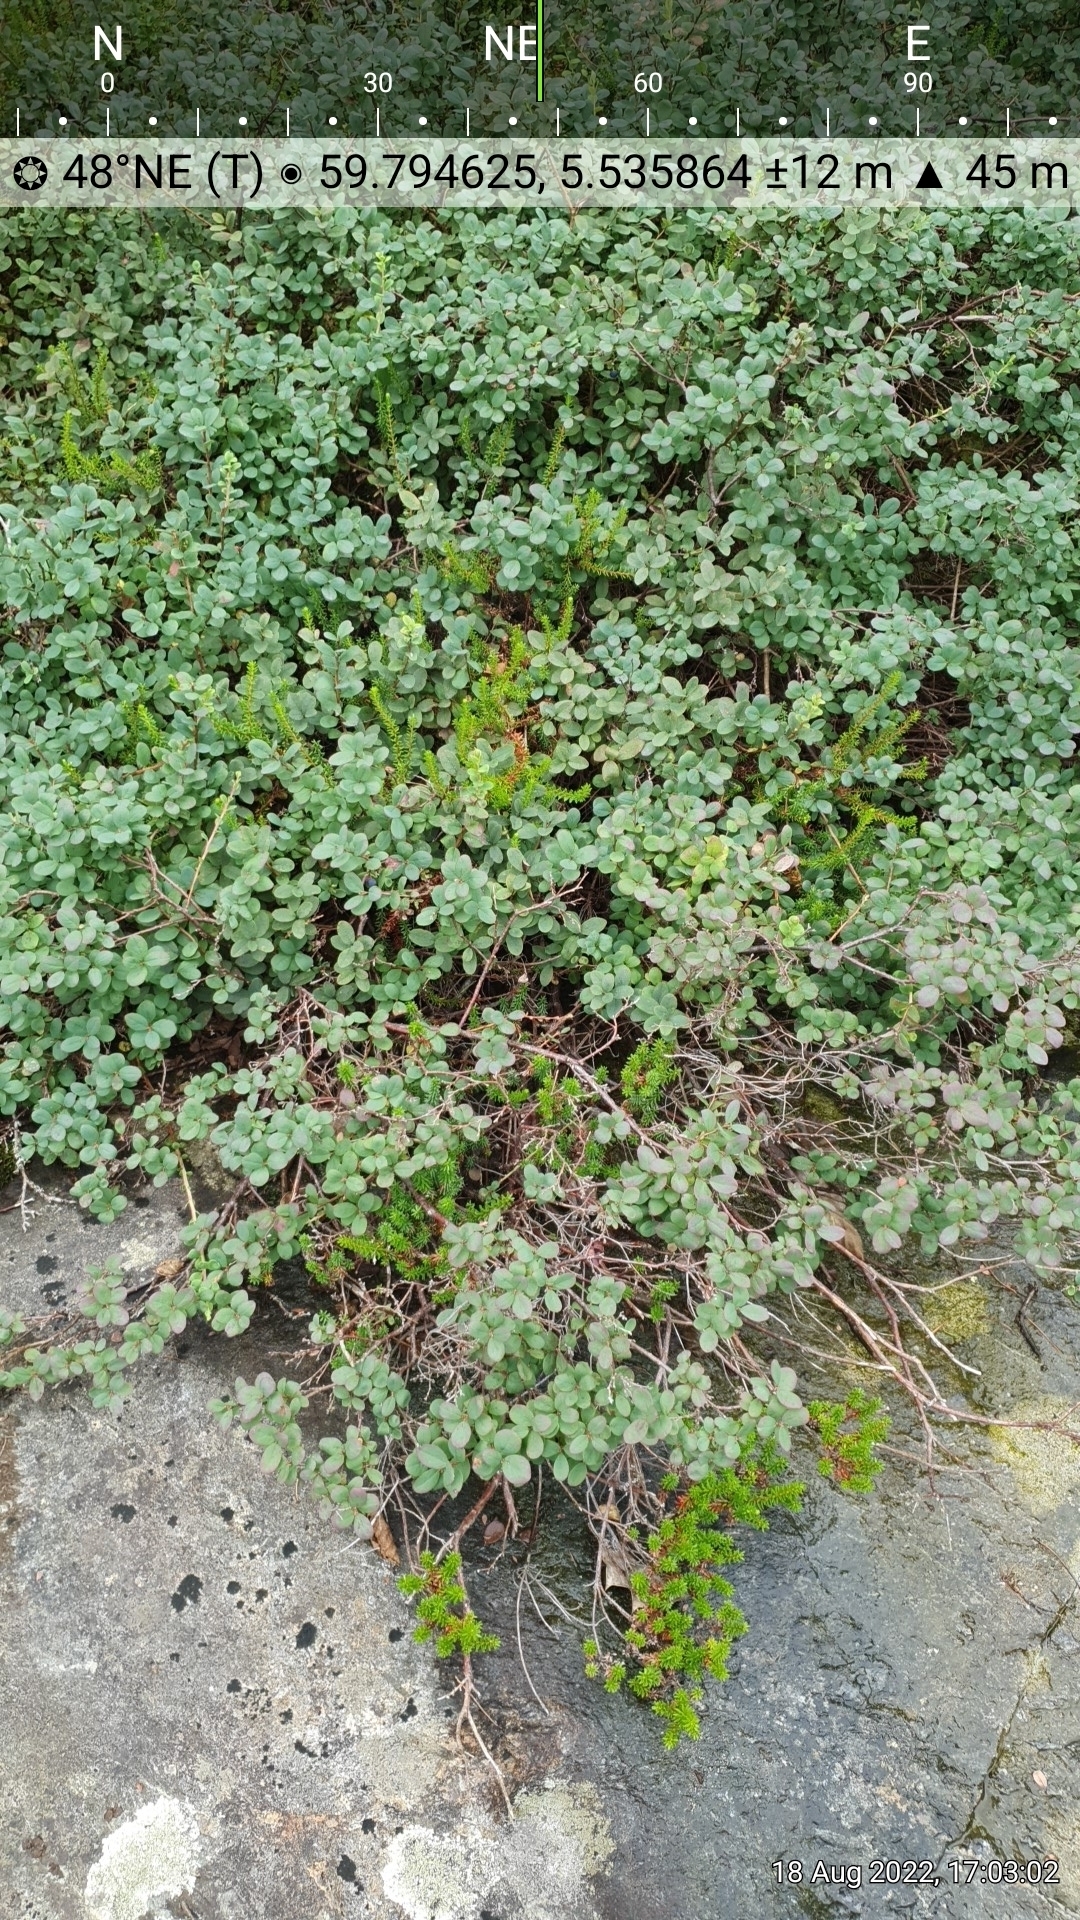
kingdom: Plantae
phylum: Tracheophyta
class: Magnoliopsida
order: Ericales
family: Ericaceae
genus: Vaccinium
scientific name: Vaccinium uliginosum
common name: Bog bilberry
